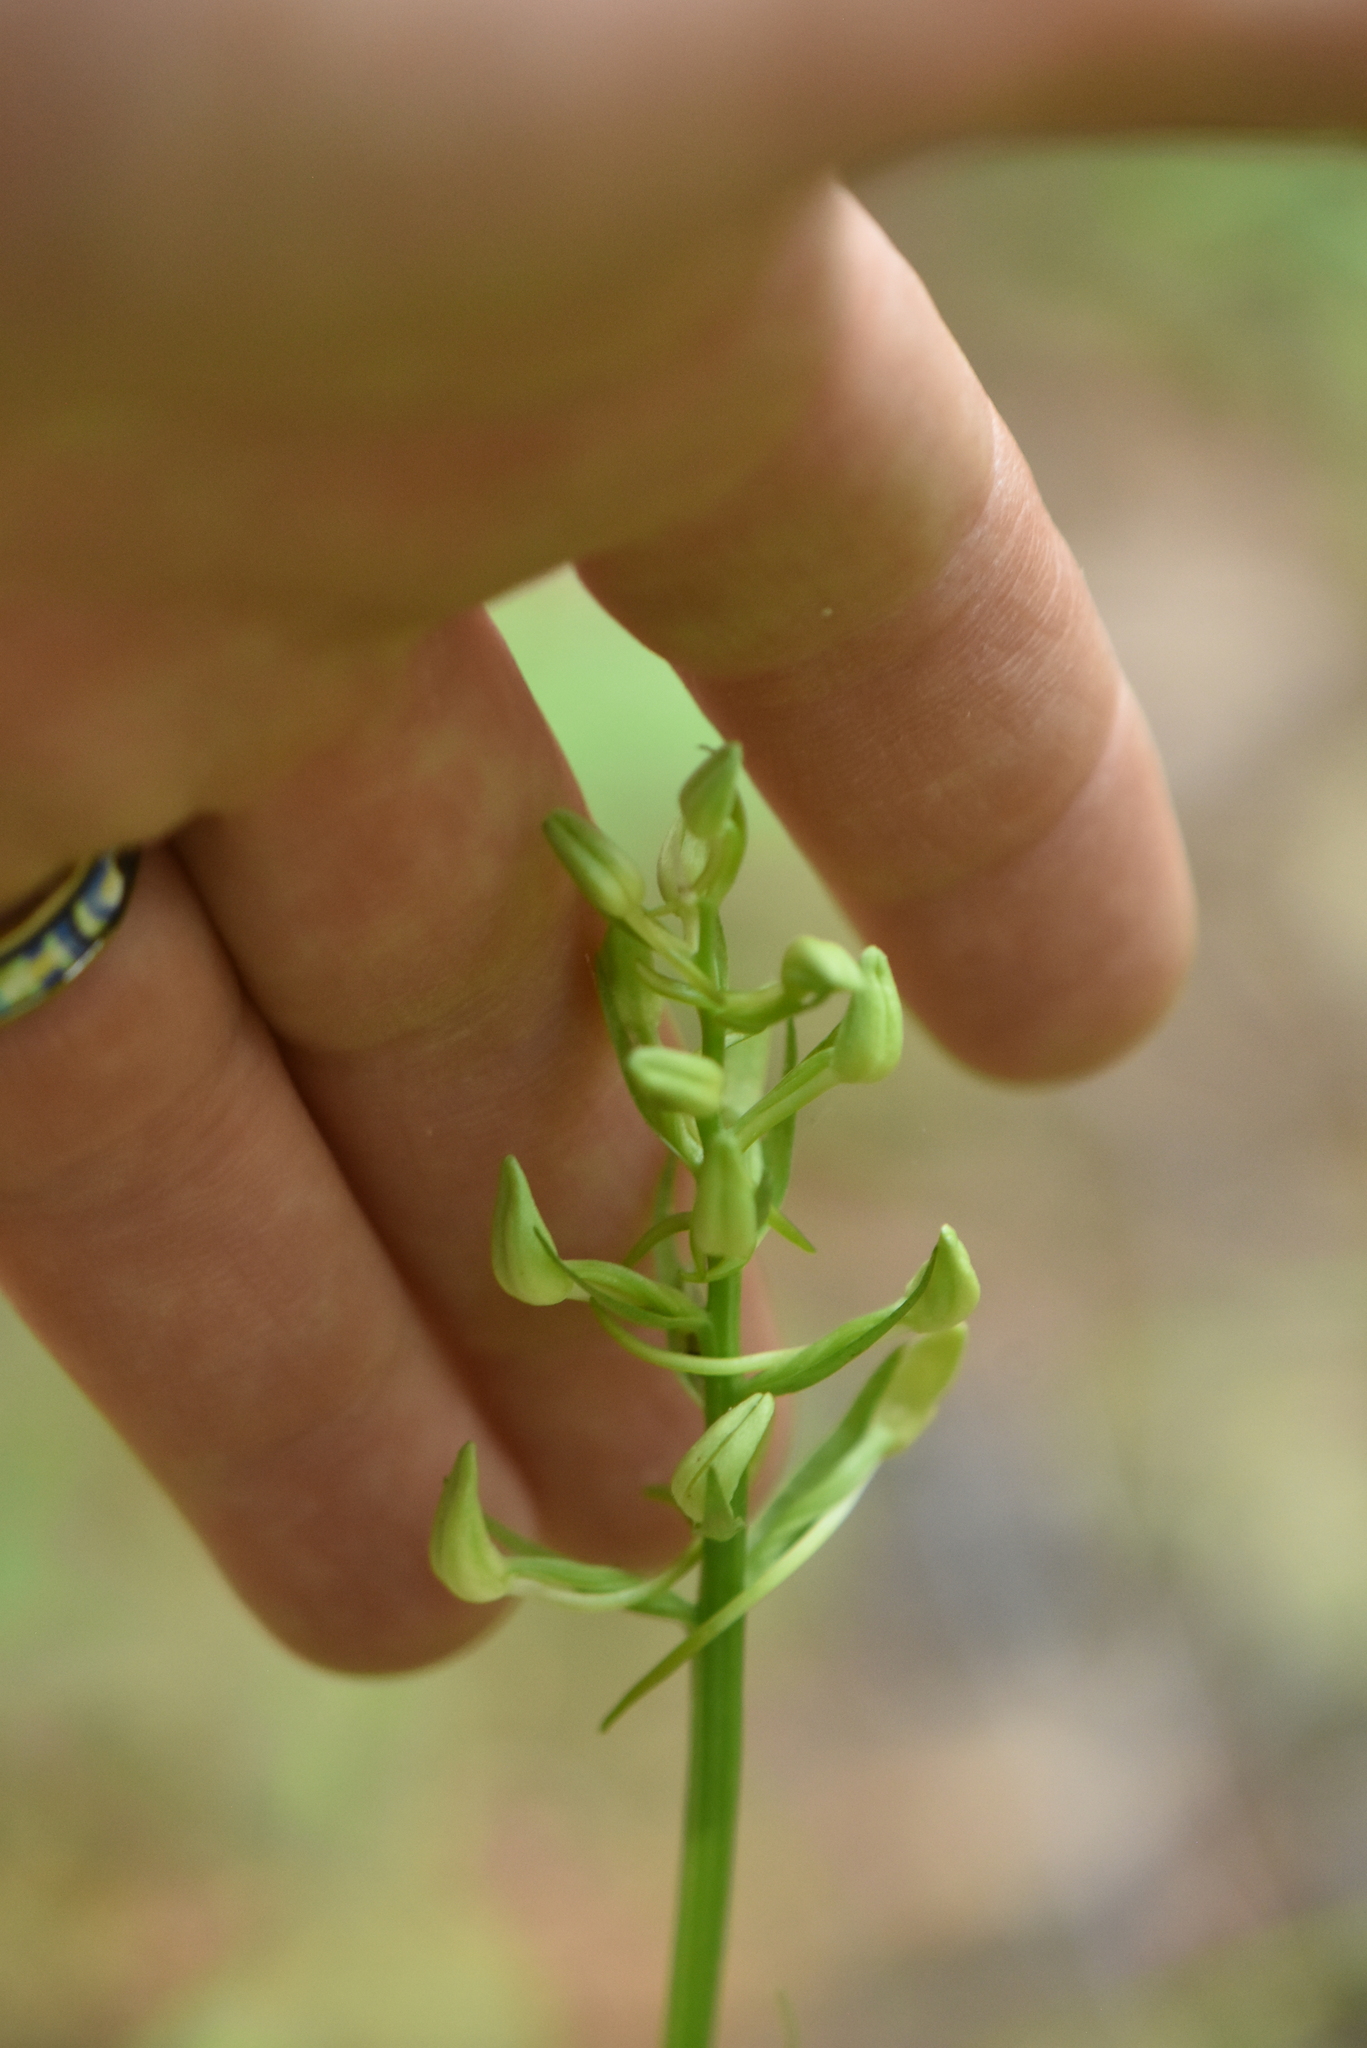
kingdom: Plantae
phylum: Tracheophyta
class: Liliopsida
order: Asparagales
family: Orchidaceae
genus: Platanthera
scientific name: Platanthera bifolia
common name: Lesser butterfly-orchid
